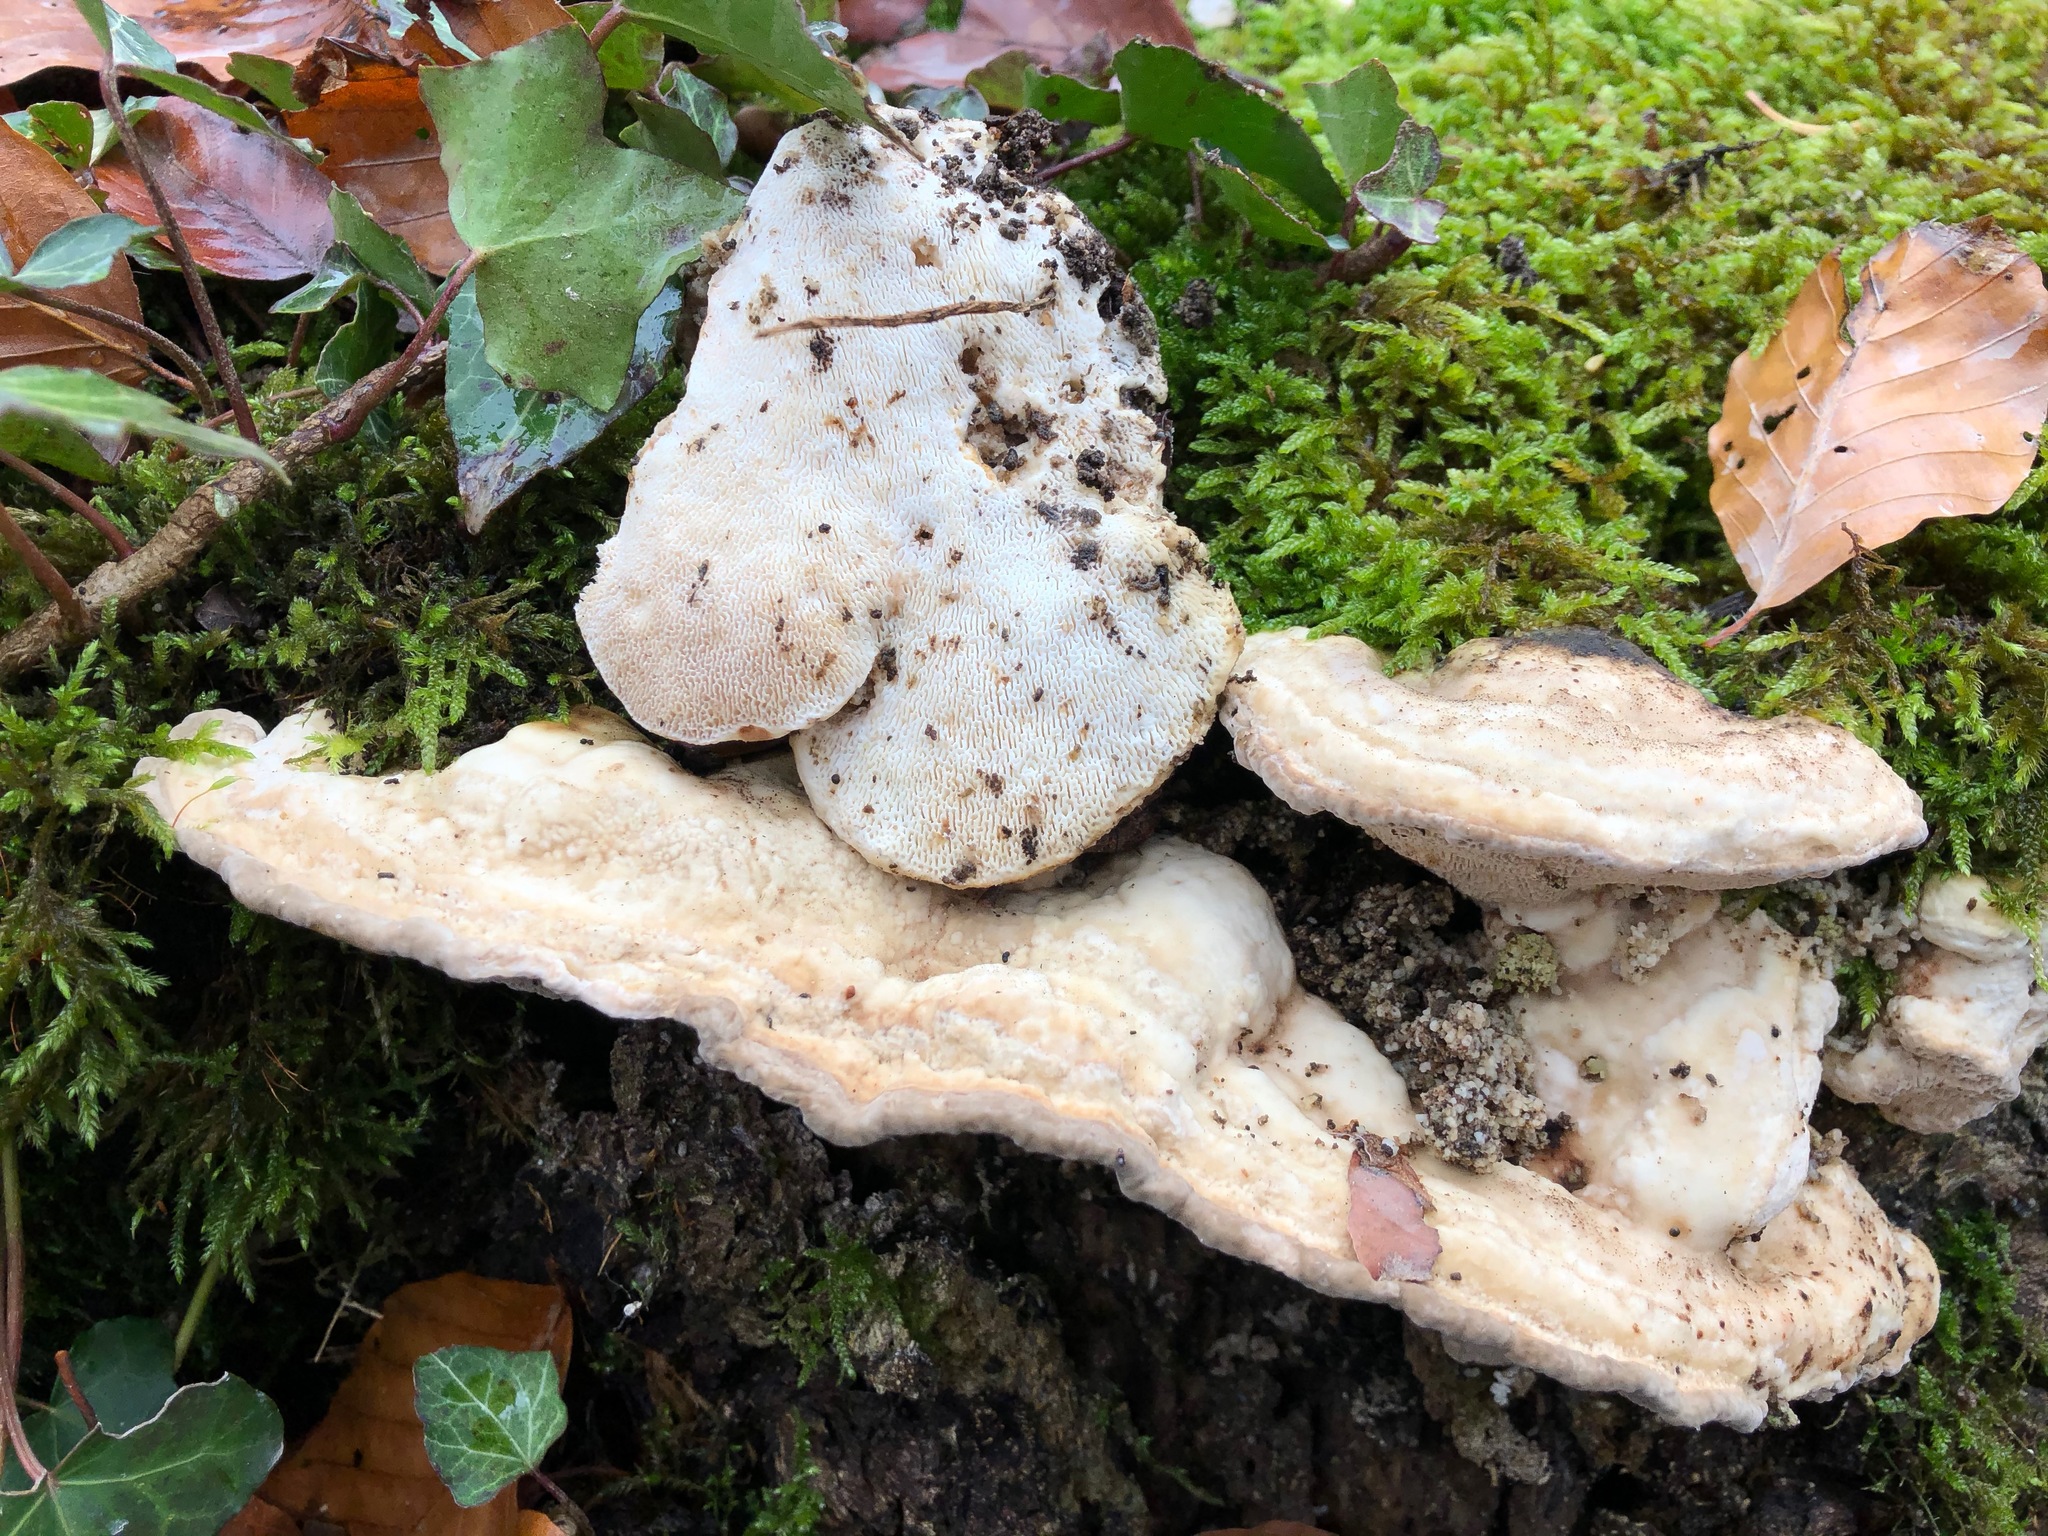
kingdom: Fungi
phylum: Basidiomycota
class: Agaricomycetes
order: Polyporales
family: Polyporaceae
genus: Trametes
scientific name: Trametes gibbosa
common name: Lumpy bracket
